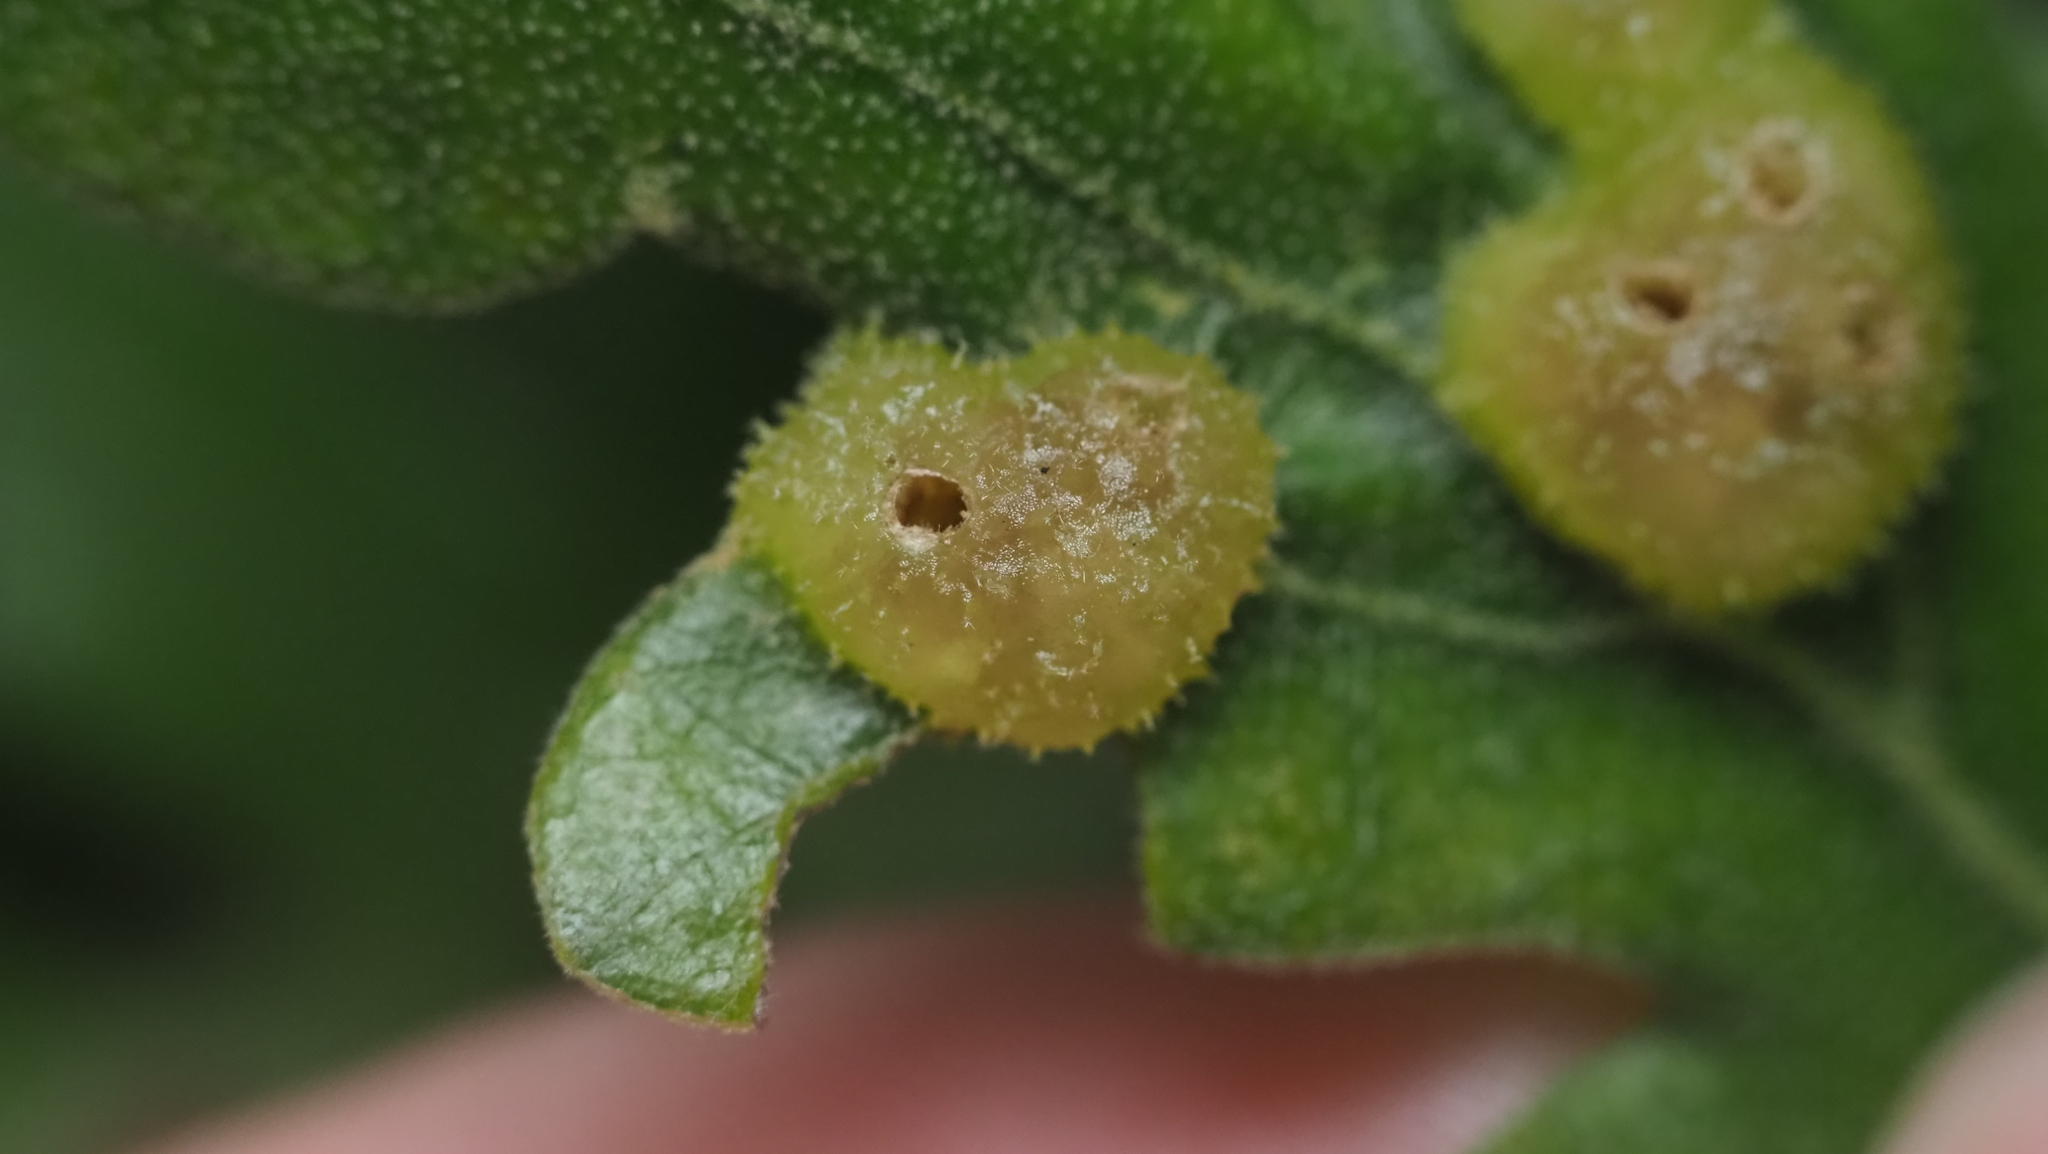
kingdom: Animalia
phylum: Arthropoda
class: Insecta
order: Hymenoptera
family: Cynipidae
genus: Neuroterus
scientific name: Neuroterus quercusirregularis
